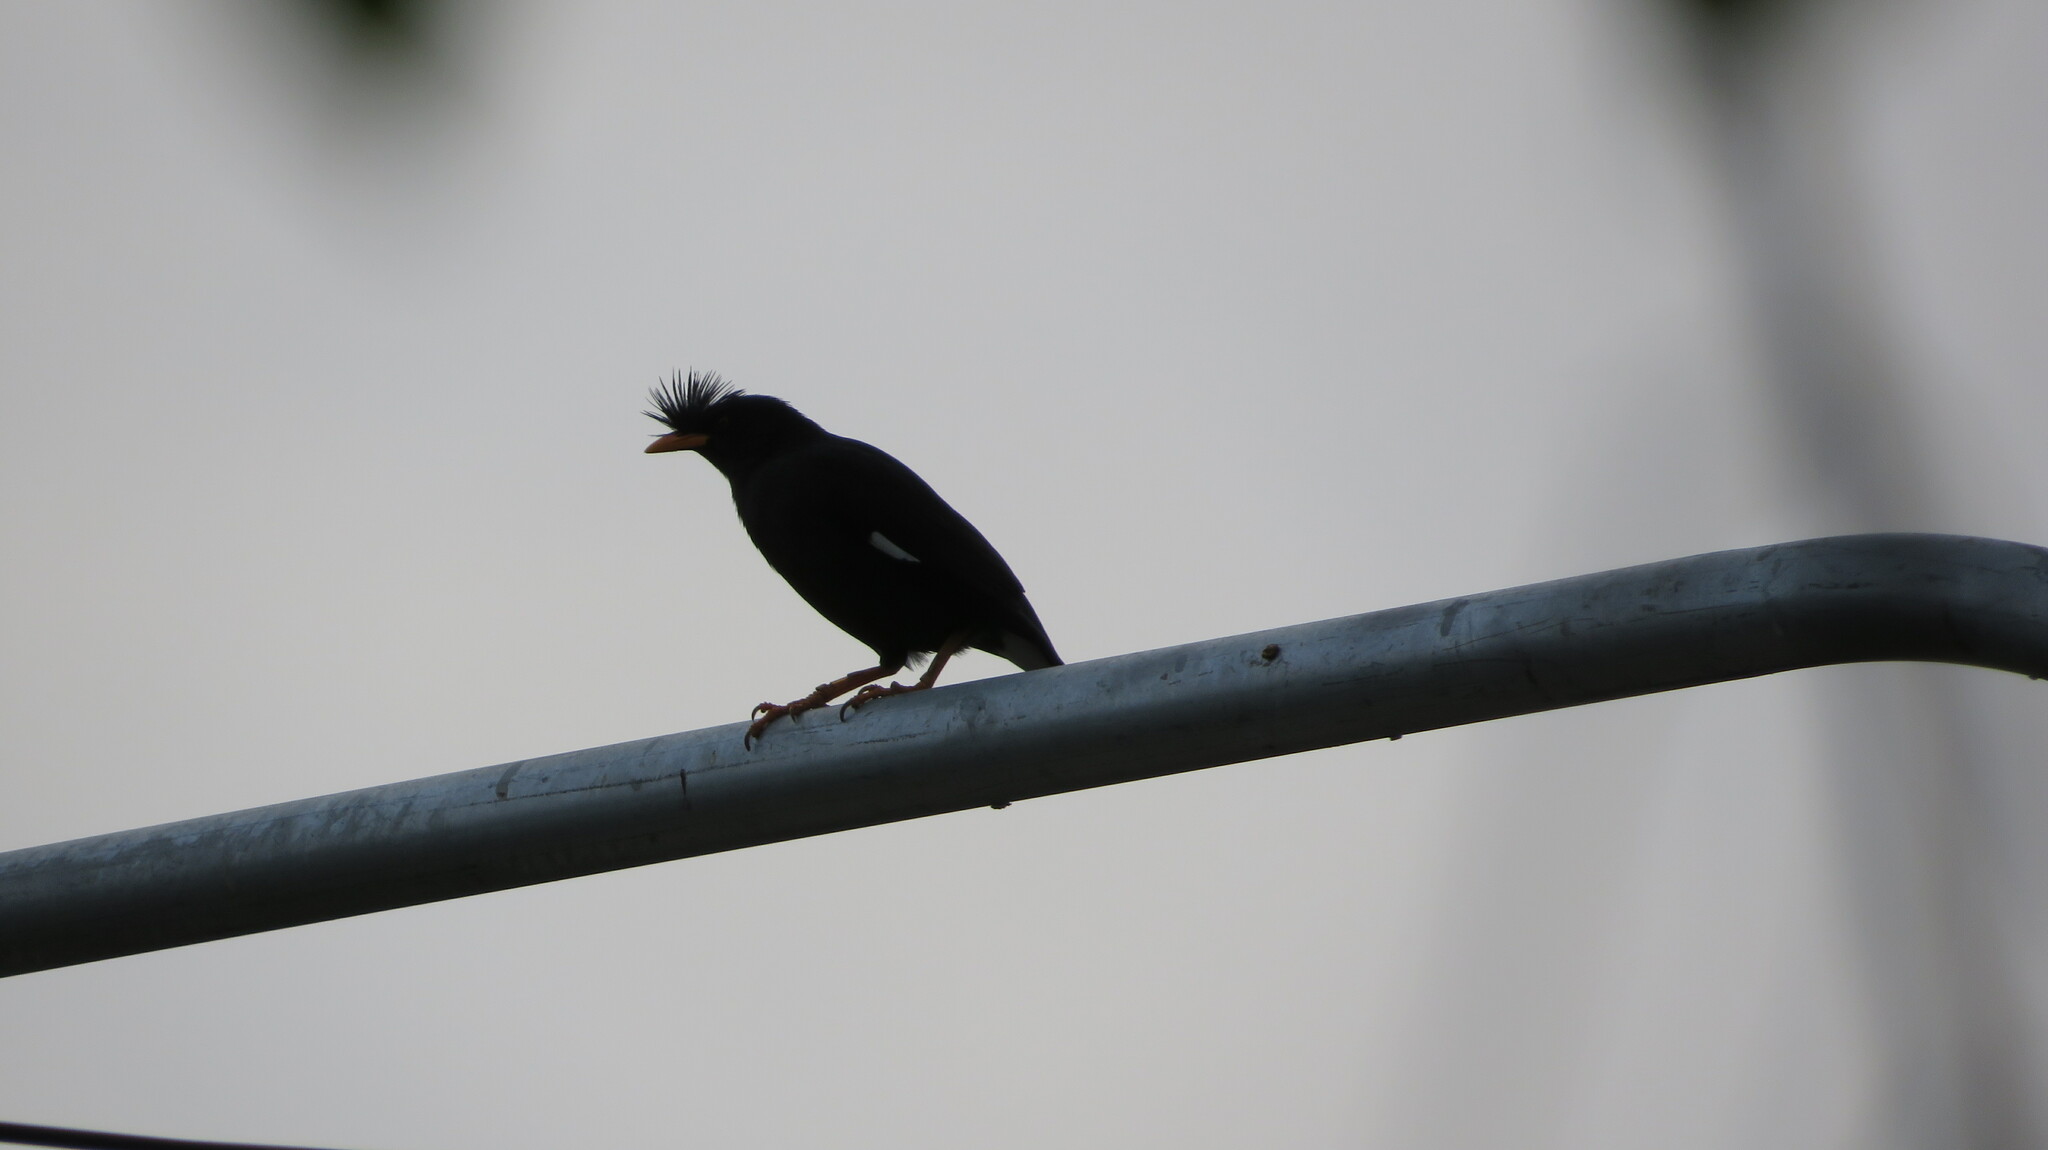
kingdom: Animalia
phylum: Chordata
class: Aves
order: Passeriformes
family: Sturnidae
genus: Acridotheres
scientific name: Acridotheres grandis
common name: Great myna
